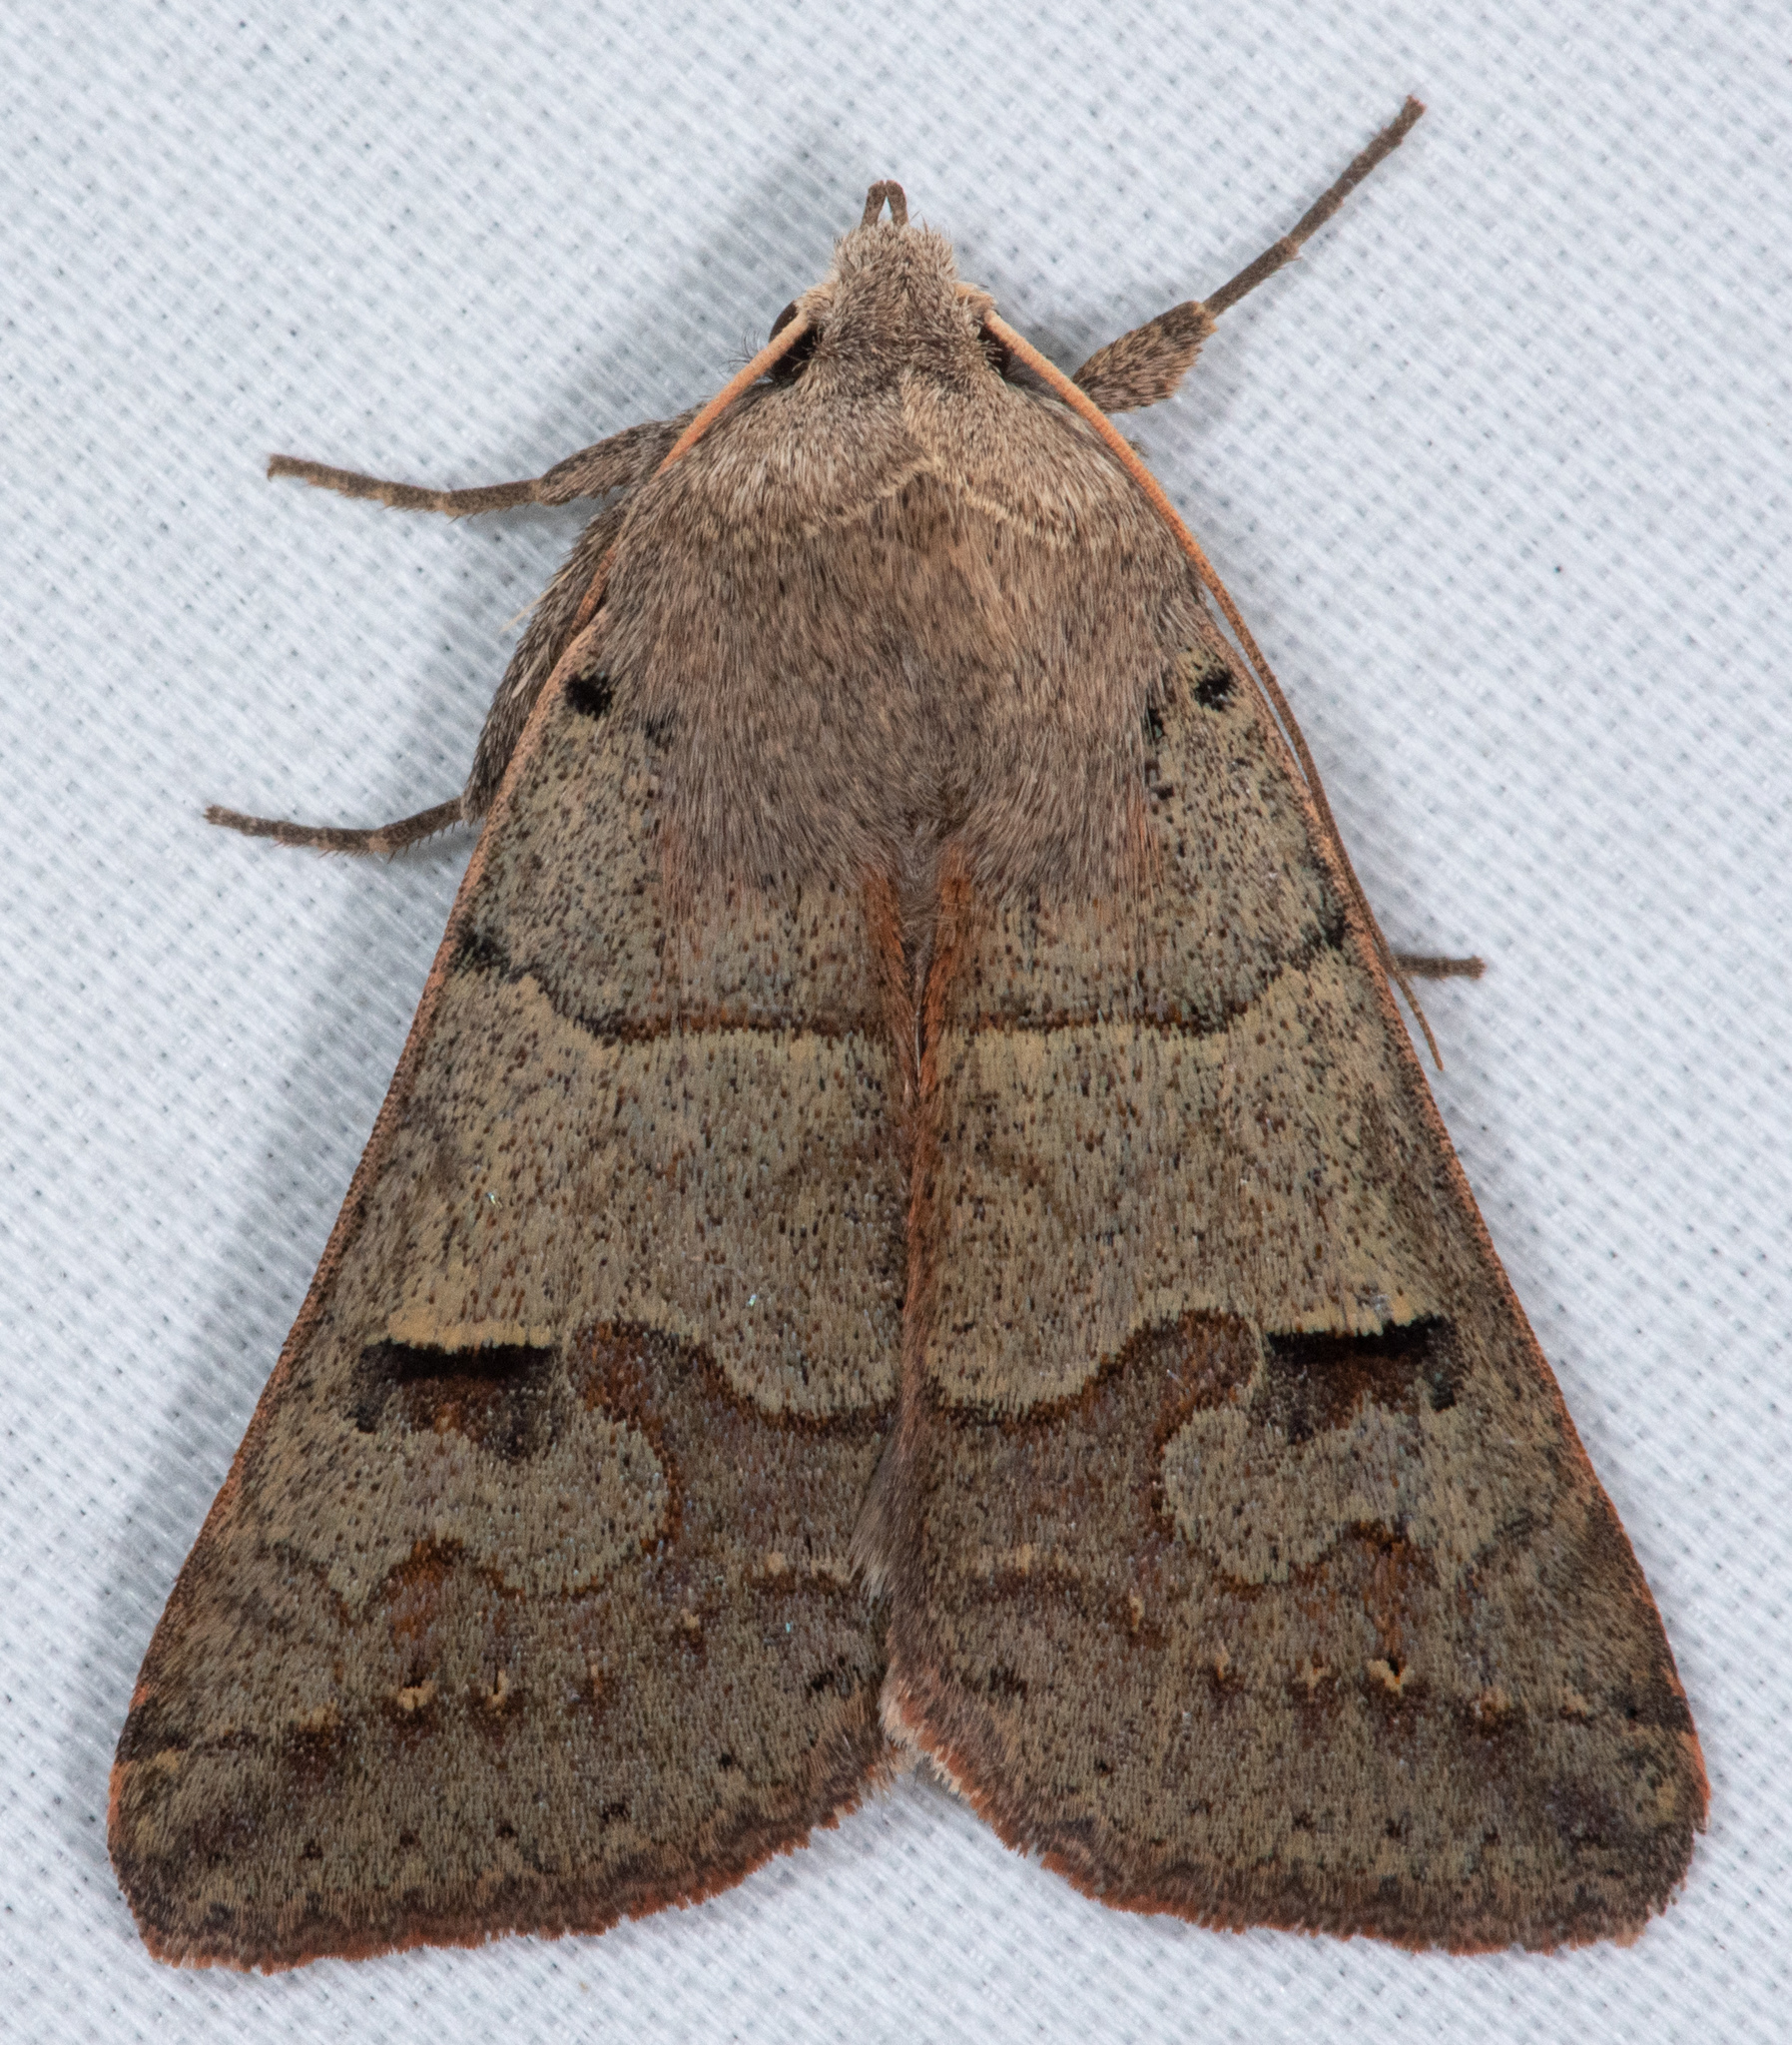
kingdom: Animalia
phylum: Arthropoda
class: Insecta
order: Lepidoptera
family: Erebidae
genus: Cissusa
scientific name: Cissusa indiscreta
